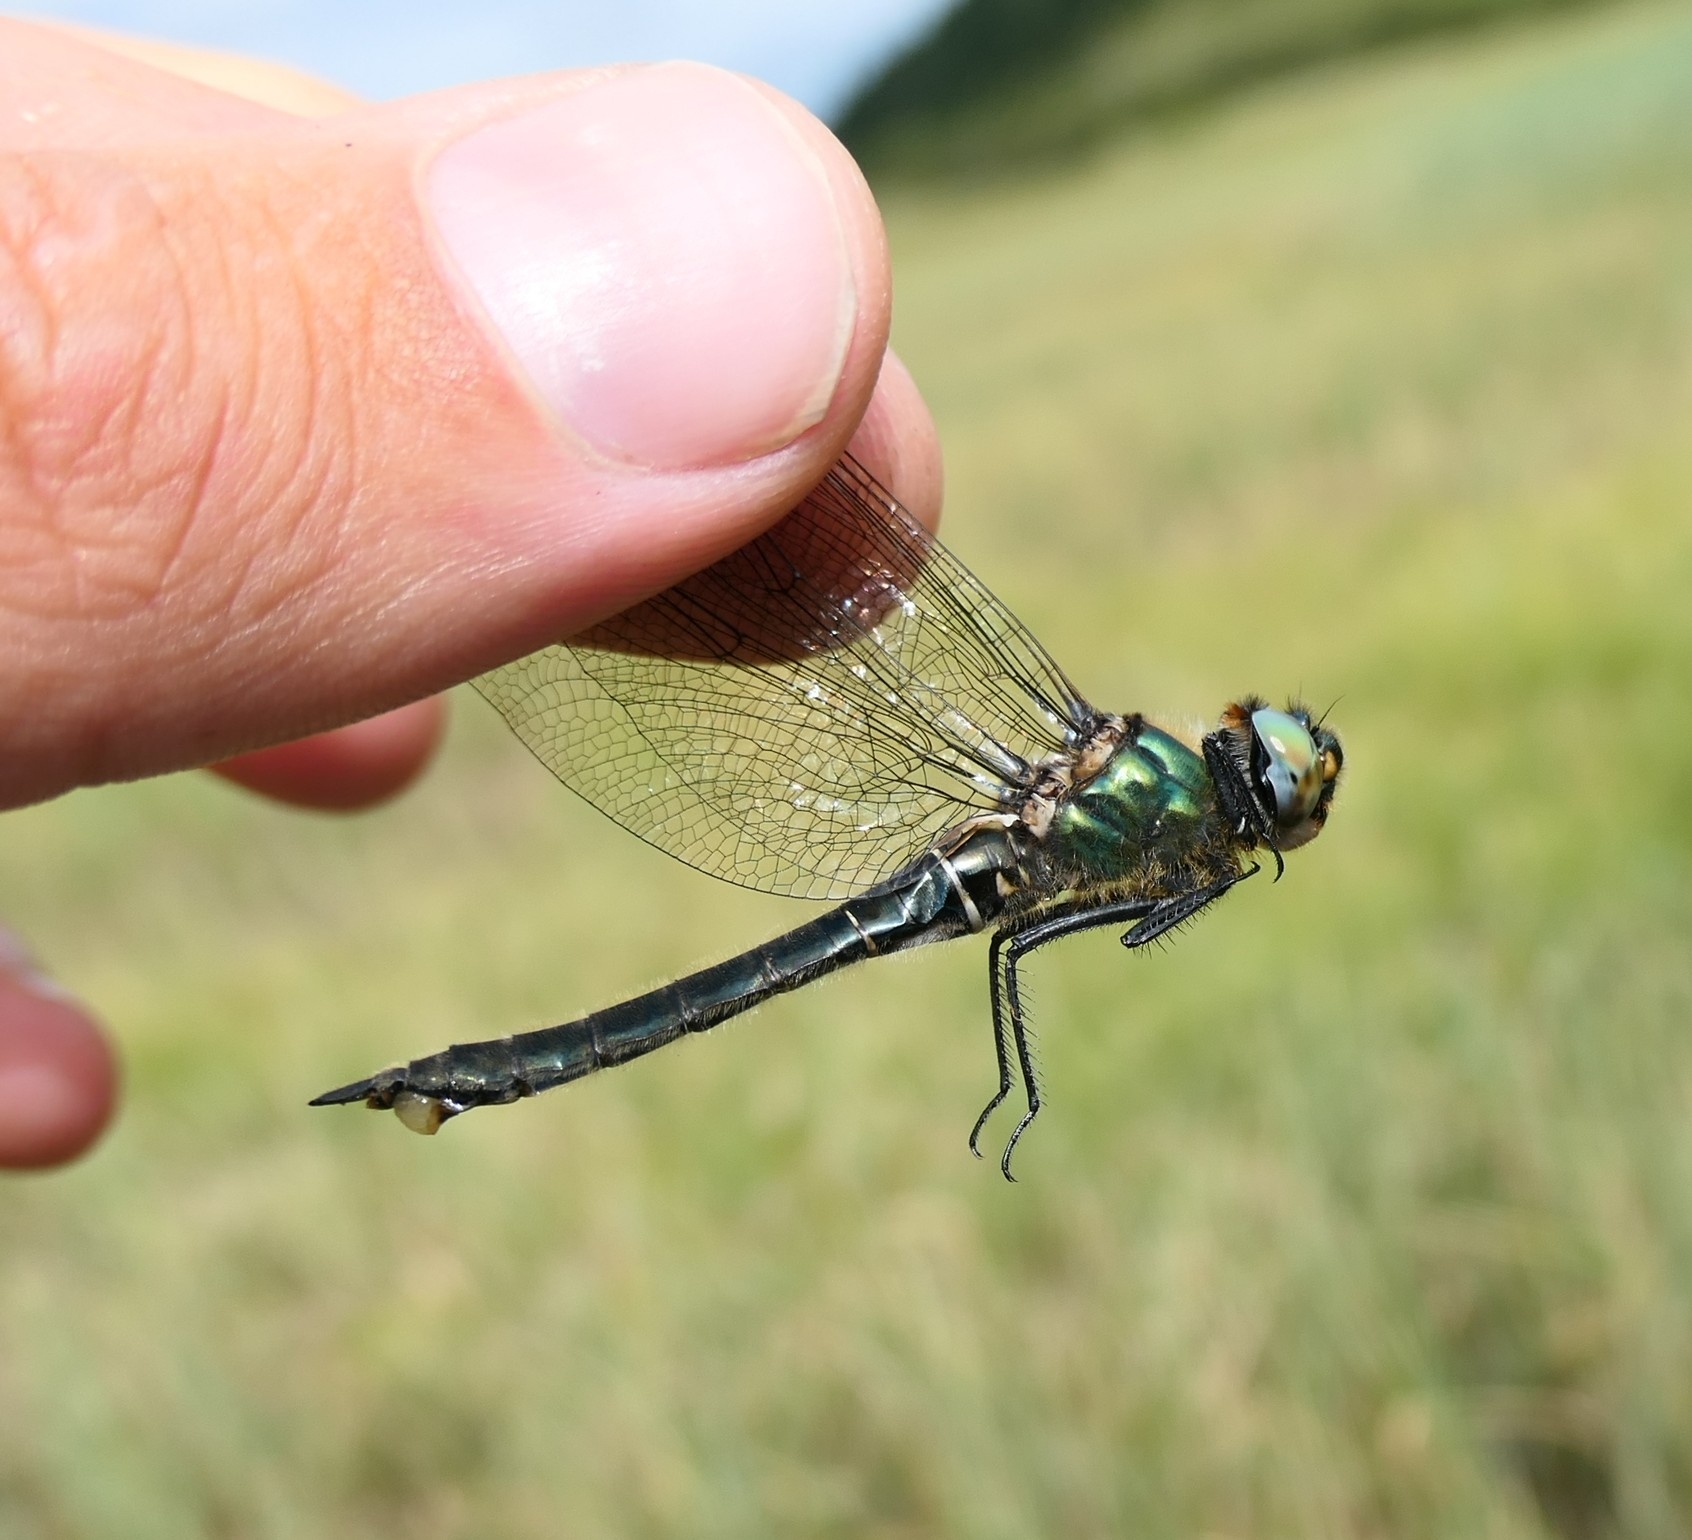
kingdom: Animalia
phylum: Arthropoda
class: Insecta
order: Odonata
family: Corduliidae
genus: Somatochlora
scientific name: Somatochlora alpestris
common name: Alpine emerald
